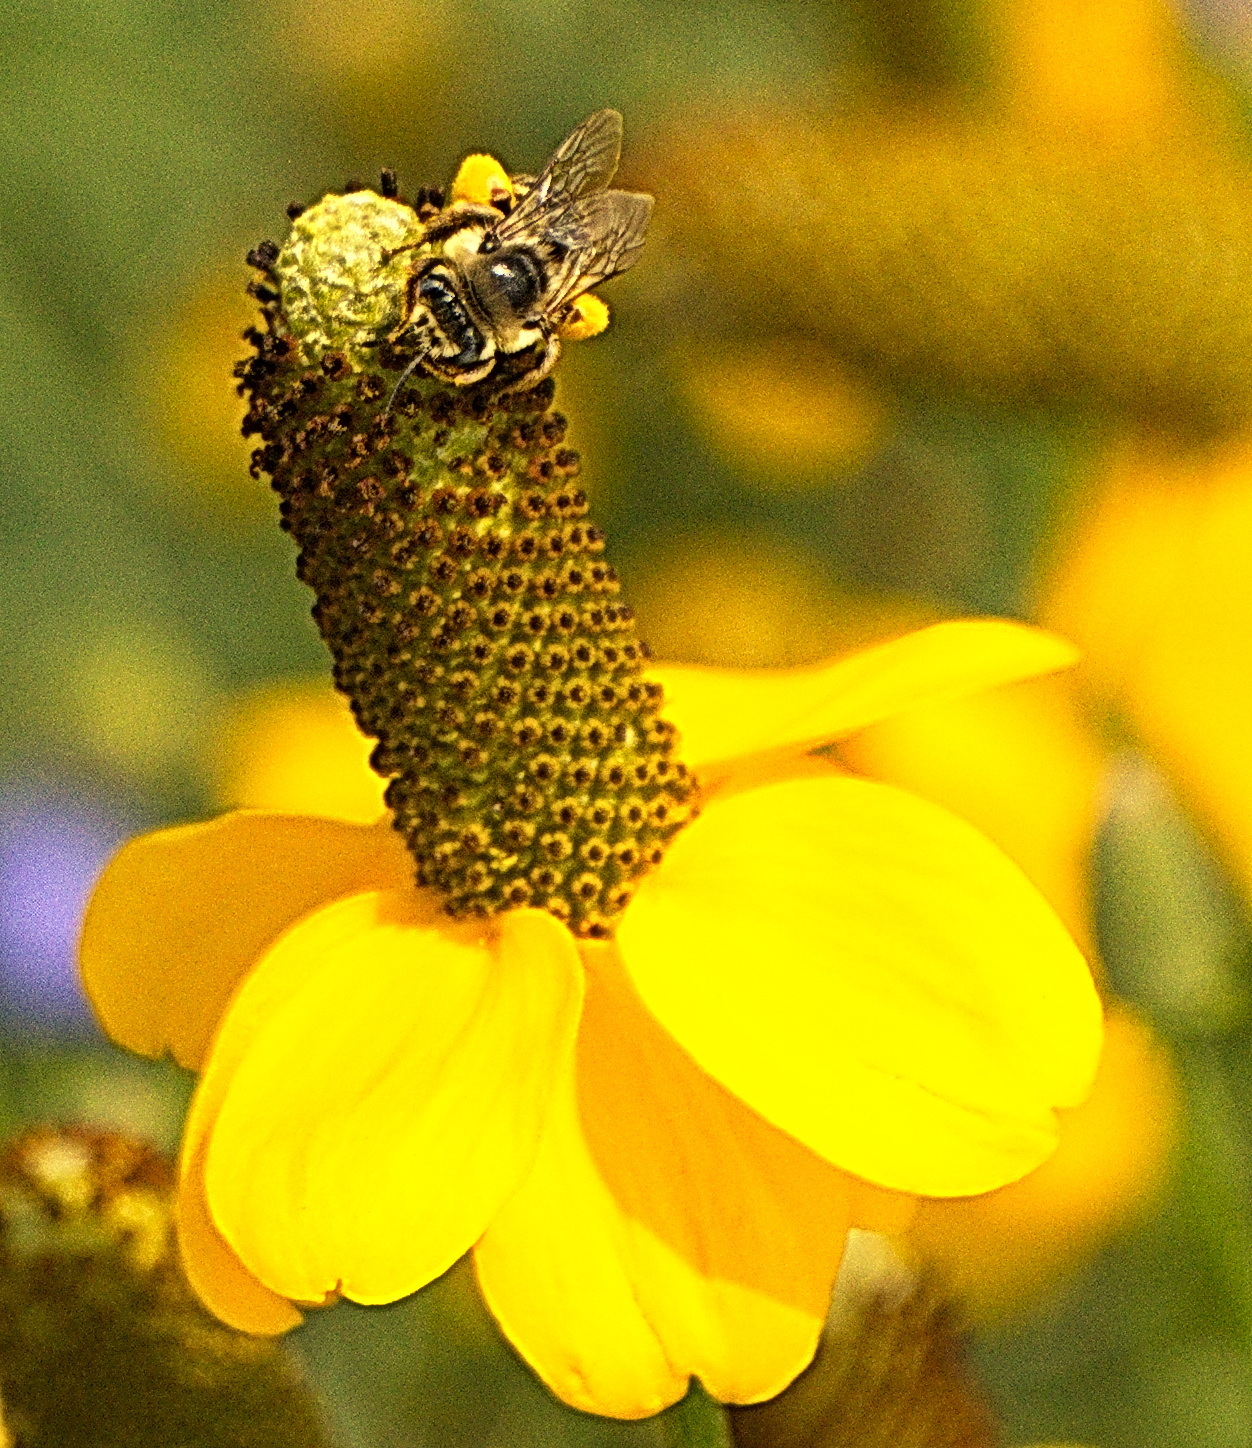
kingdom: Animalia
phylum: Arthropoda
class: Insecta
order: Hymenoptera
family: Apidae
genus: Melissodes
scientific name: Melissodes
